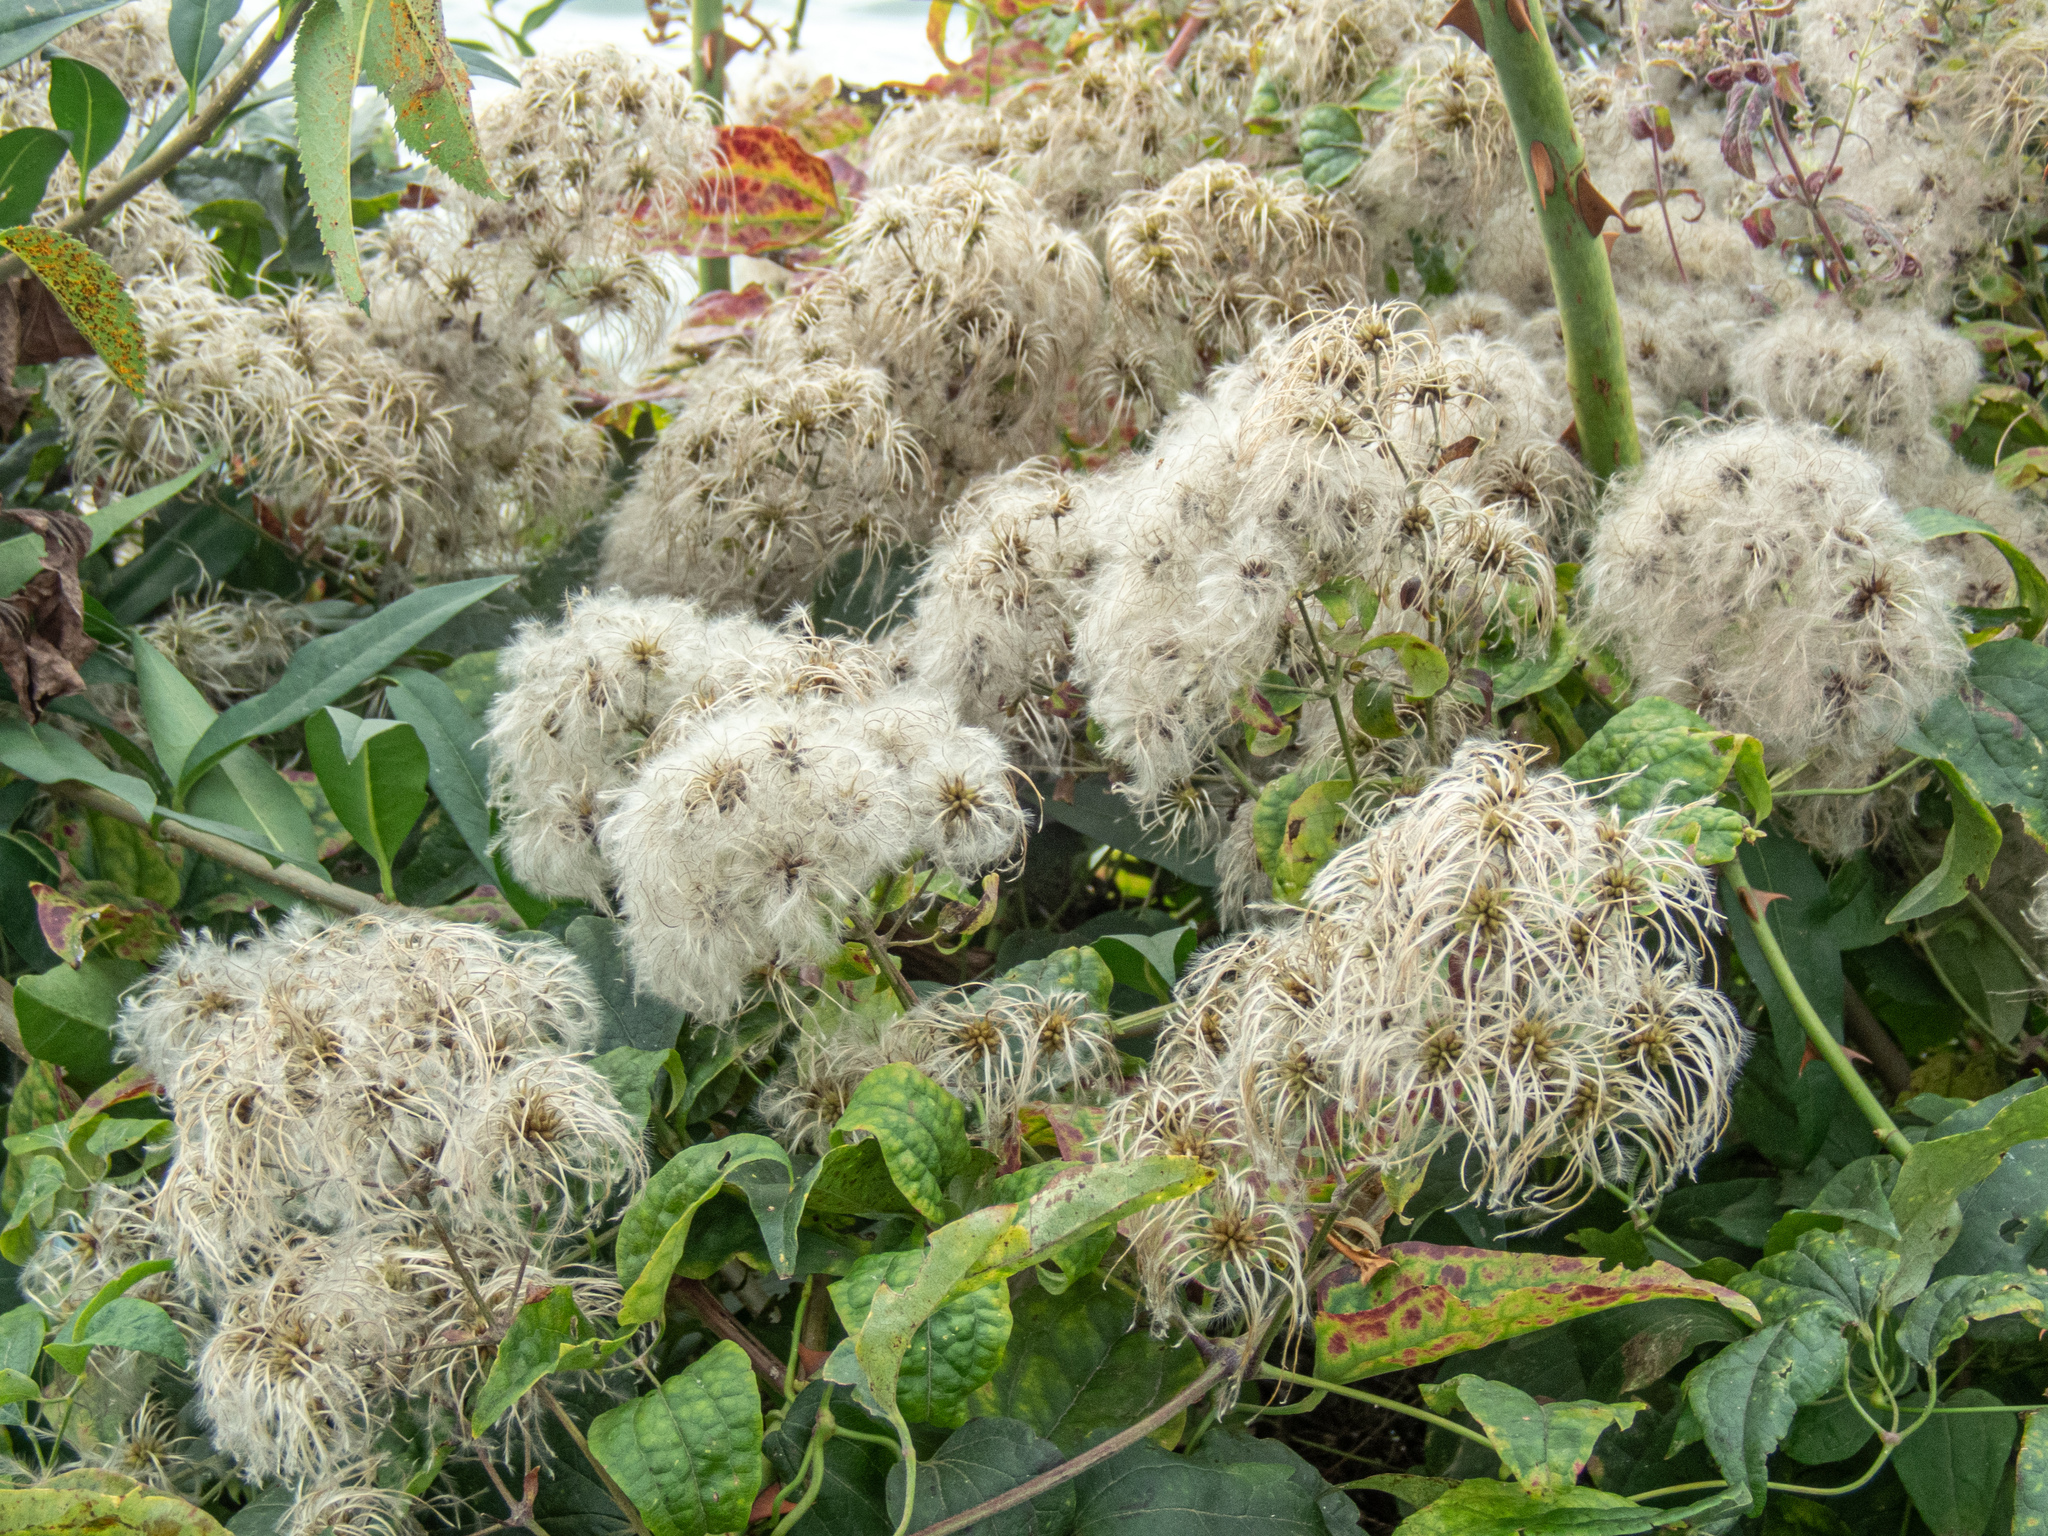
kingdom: Plantae
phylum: Tracheophyta
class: Magnoliopsida
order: Ranunculales
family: Ranunculaceae
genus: Clematis
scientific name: Clematis vitalba
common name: Evergreen clematis
